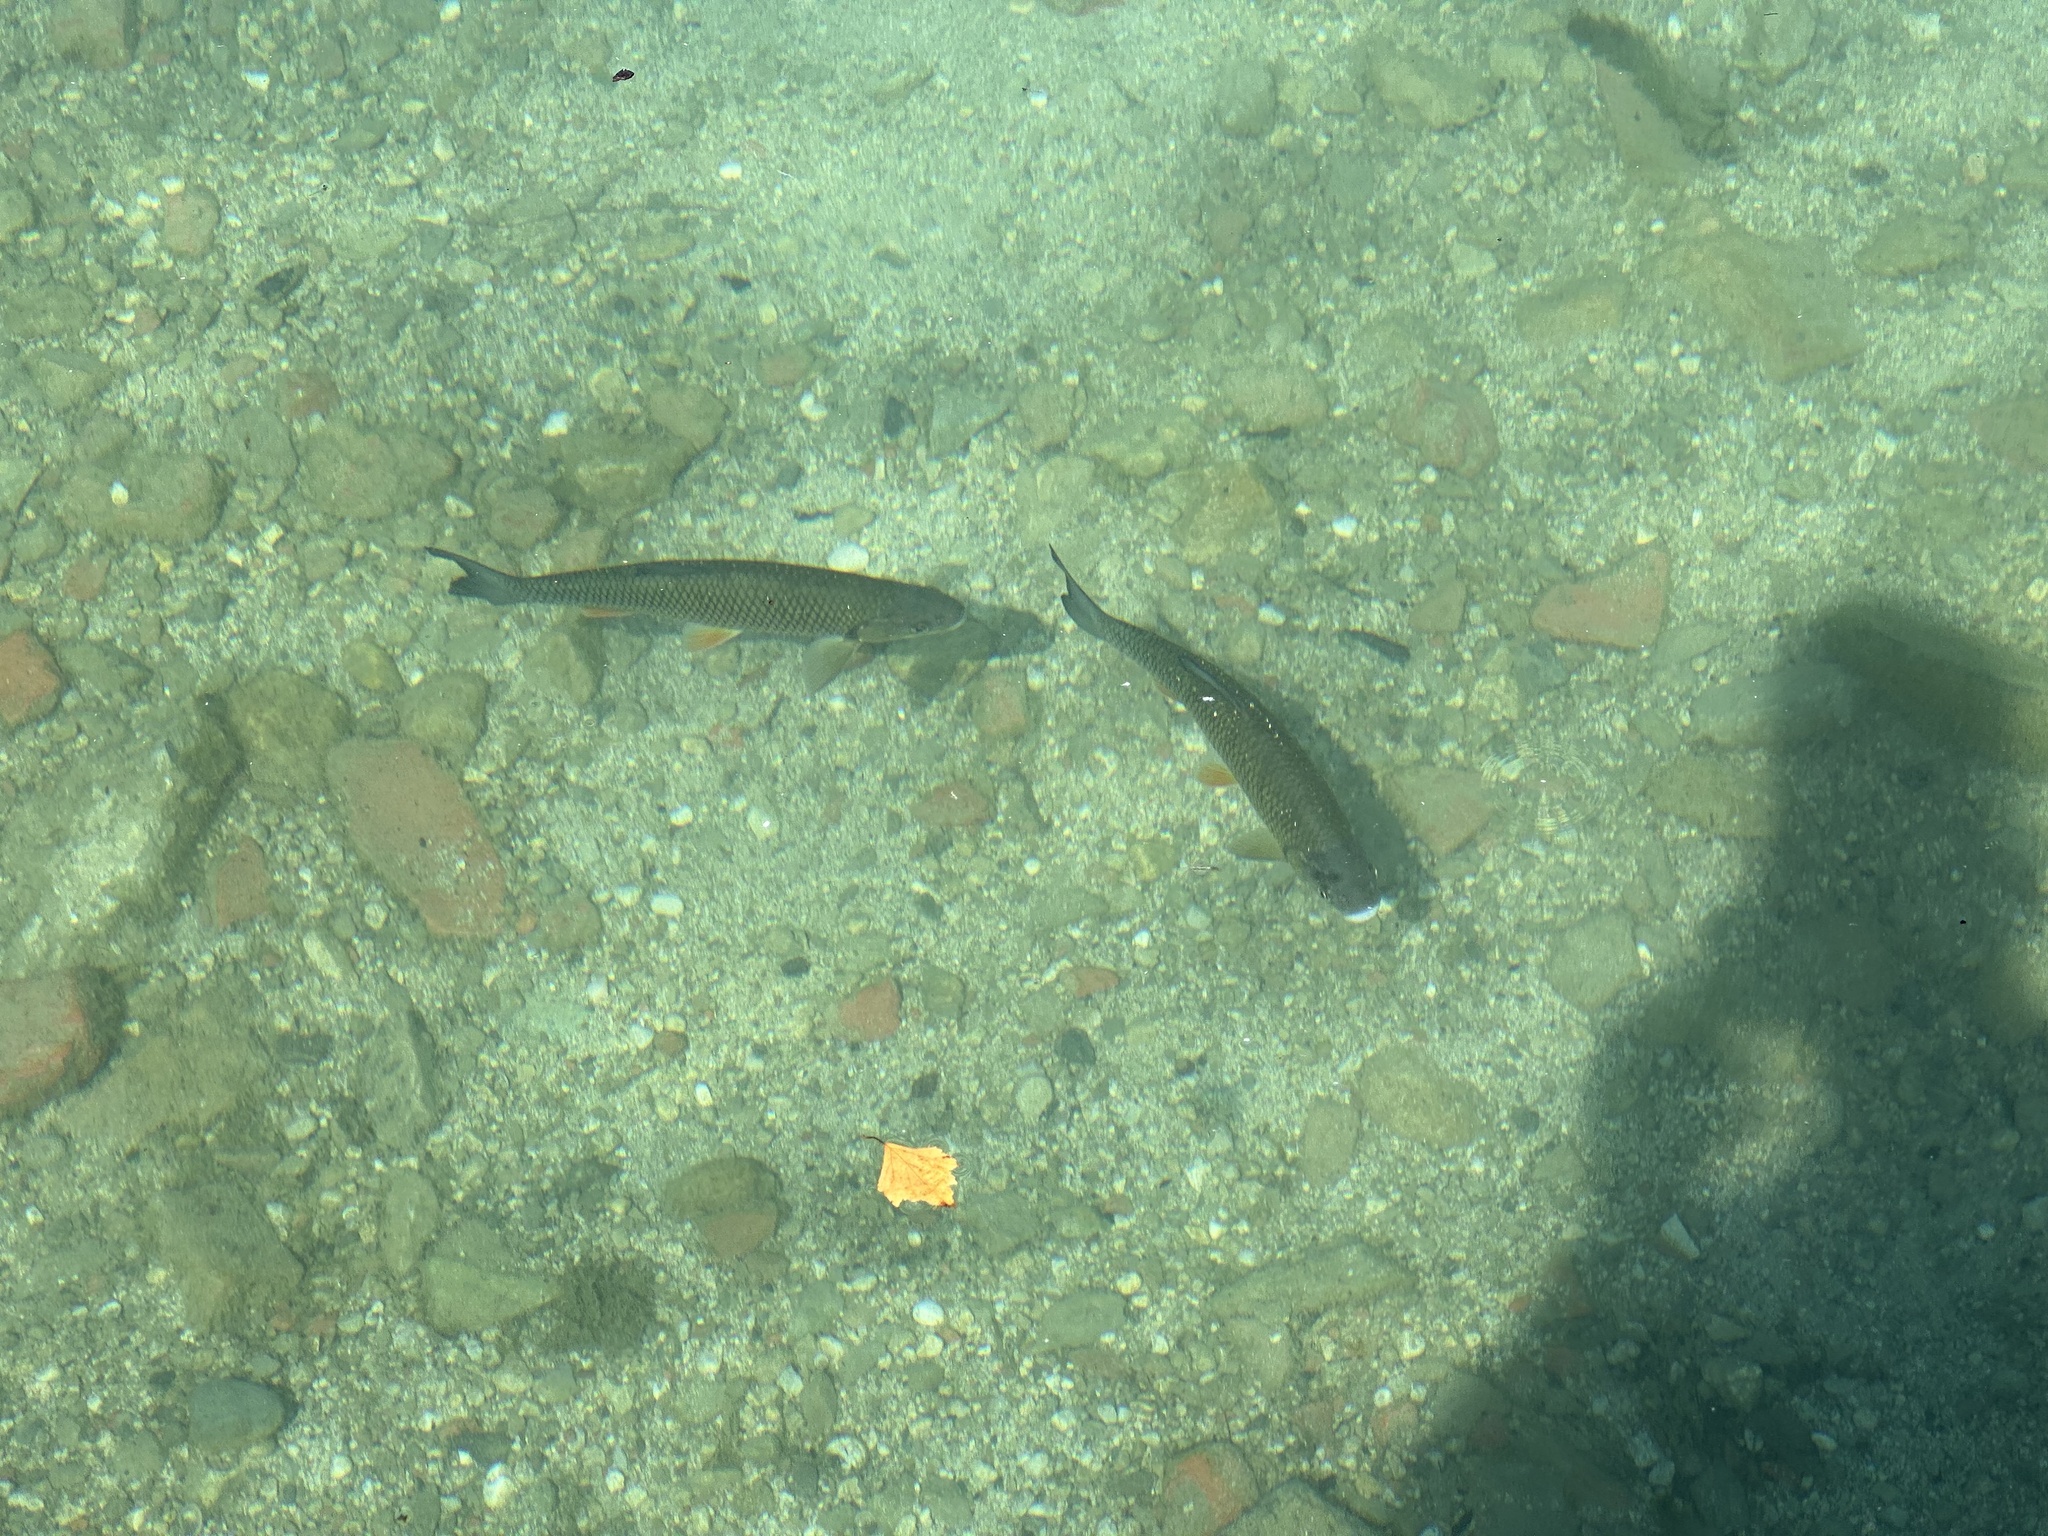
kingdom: Animalia
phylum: Chordata
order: Cypriniformes
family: Cyprinidae
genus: Squalius
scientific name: Squalius cephalus
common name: Chub
